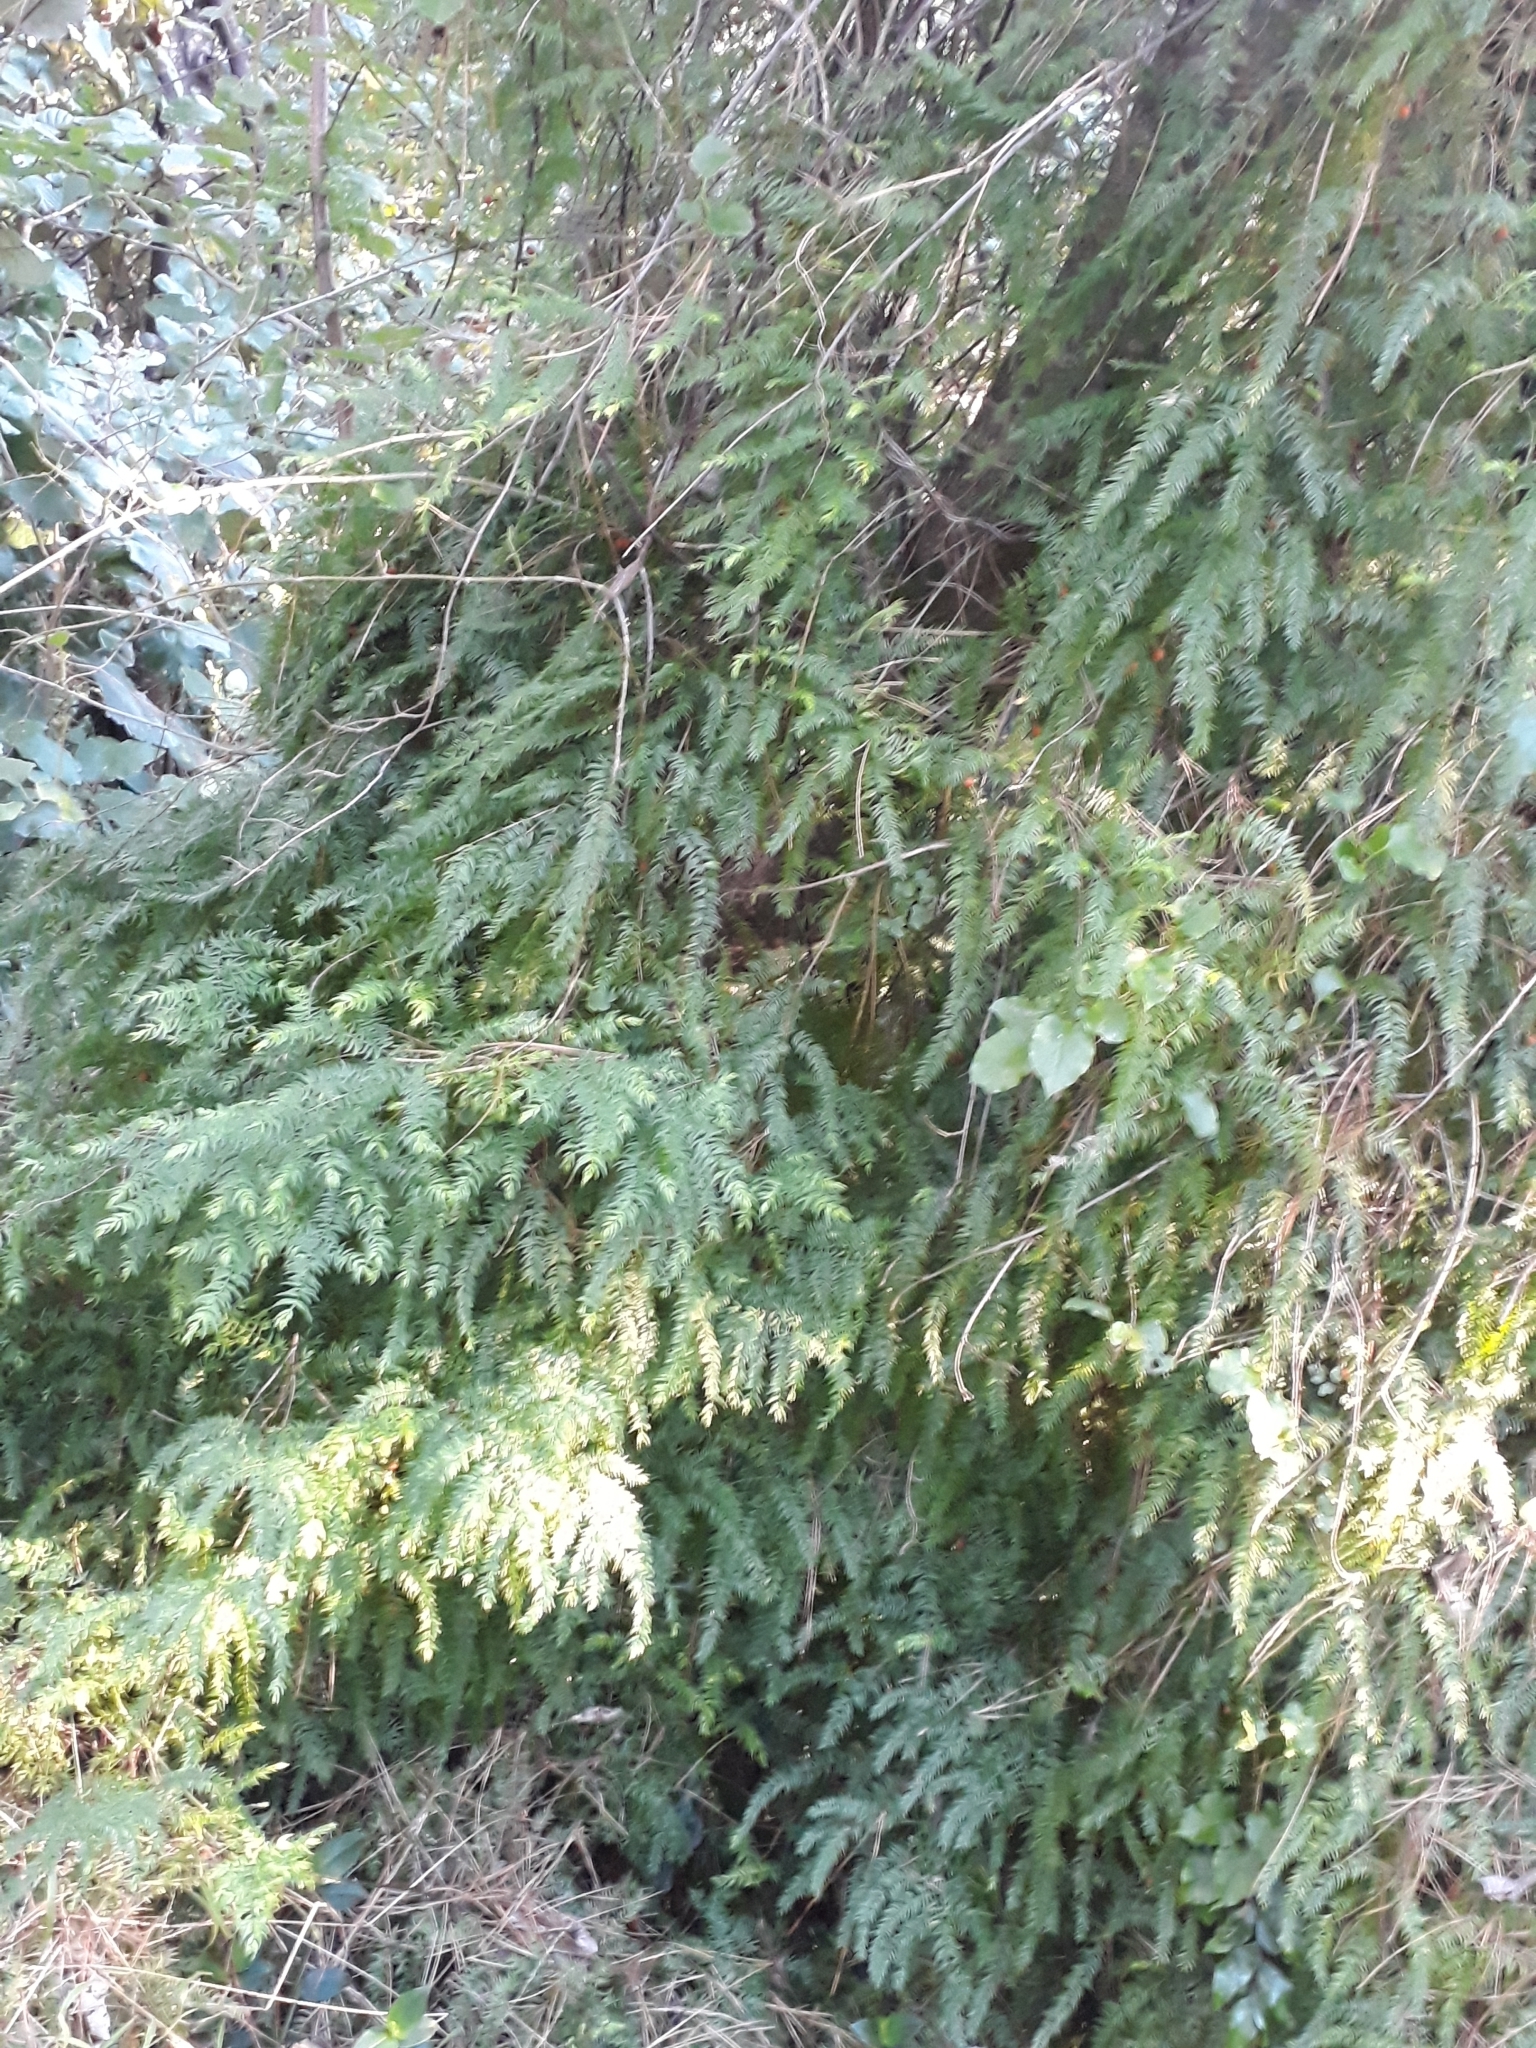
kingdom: Plantae
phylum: Tracheophyta
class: Liliopsida
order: Asparagales
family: Asparagaceae
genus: Asparagus
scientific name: Asparagus scandens
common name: Asparagus-fern
